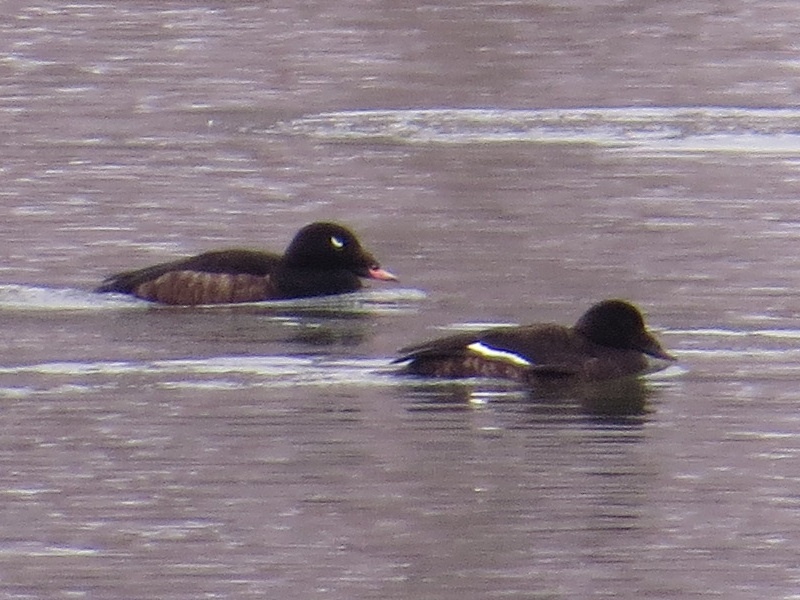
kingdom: Animalia
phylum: Chordata
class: Aves
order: Anseriformes
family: Anatidae
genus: Melanitta
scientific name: Melanitta deglandi
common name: White-winged scoter
